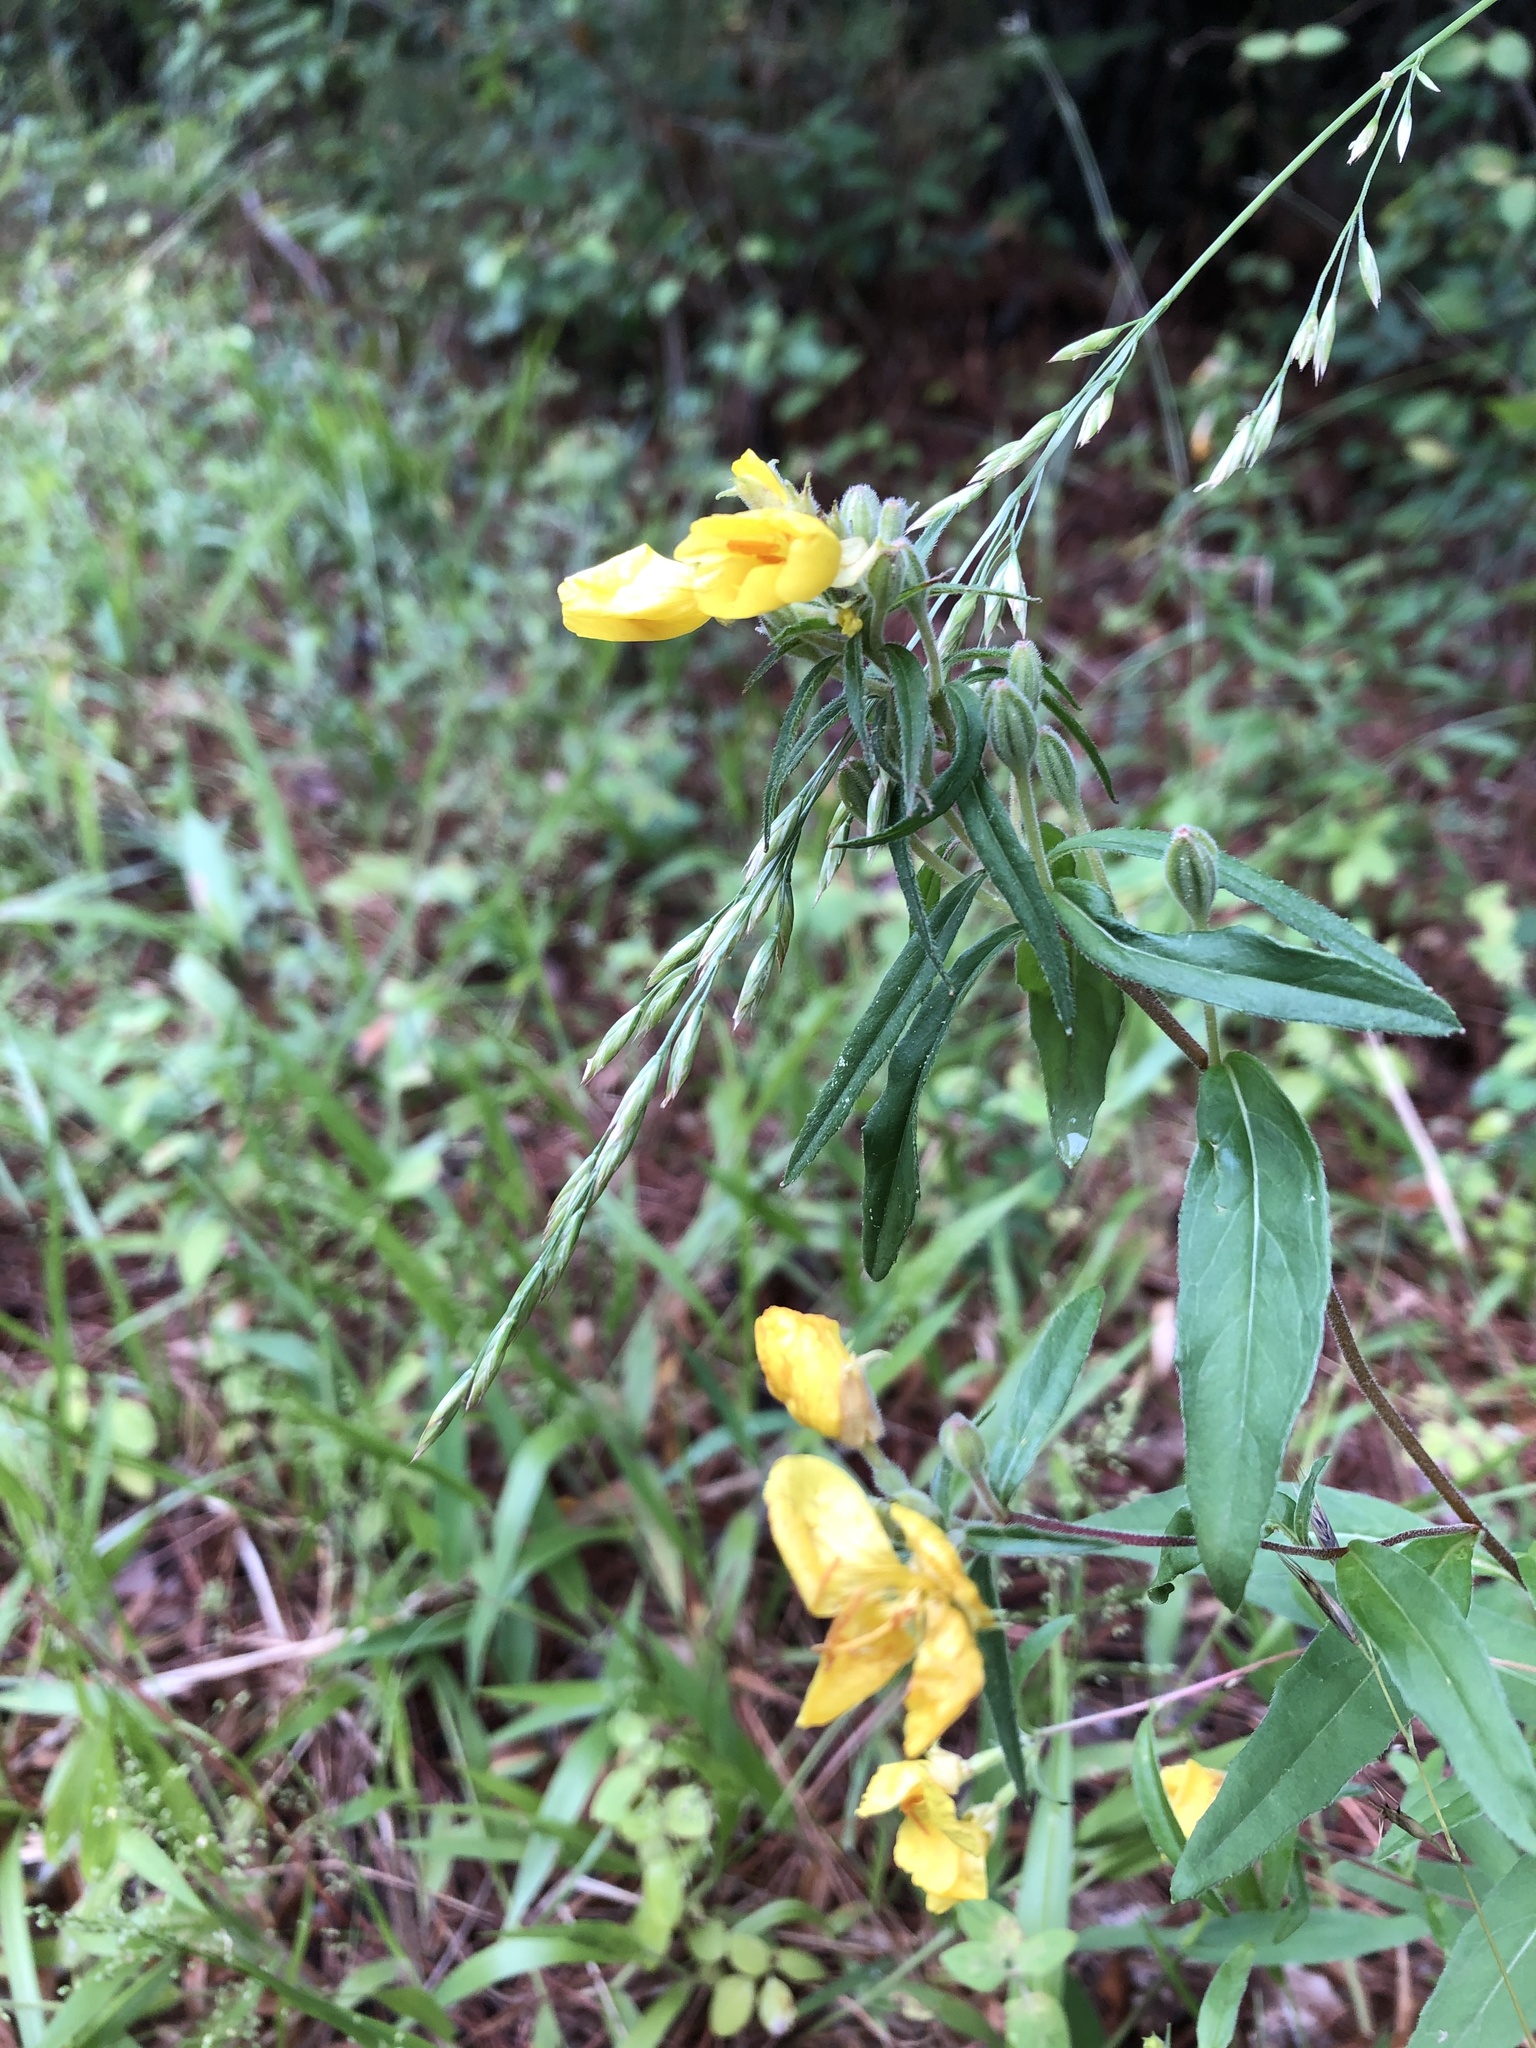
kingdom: Plantae
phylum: Tracheophyta
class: Magnoliopsida
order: Myrtales
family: Onagraceae
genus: Oenothera
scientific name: Oenothera fruticosa
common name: Southern sundrops
